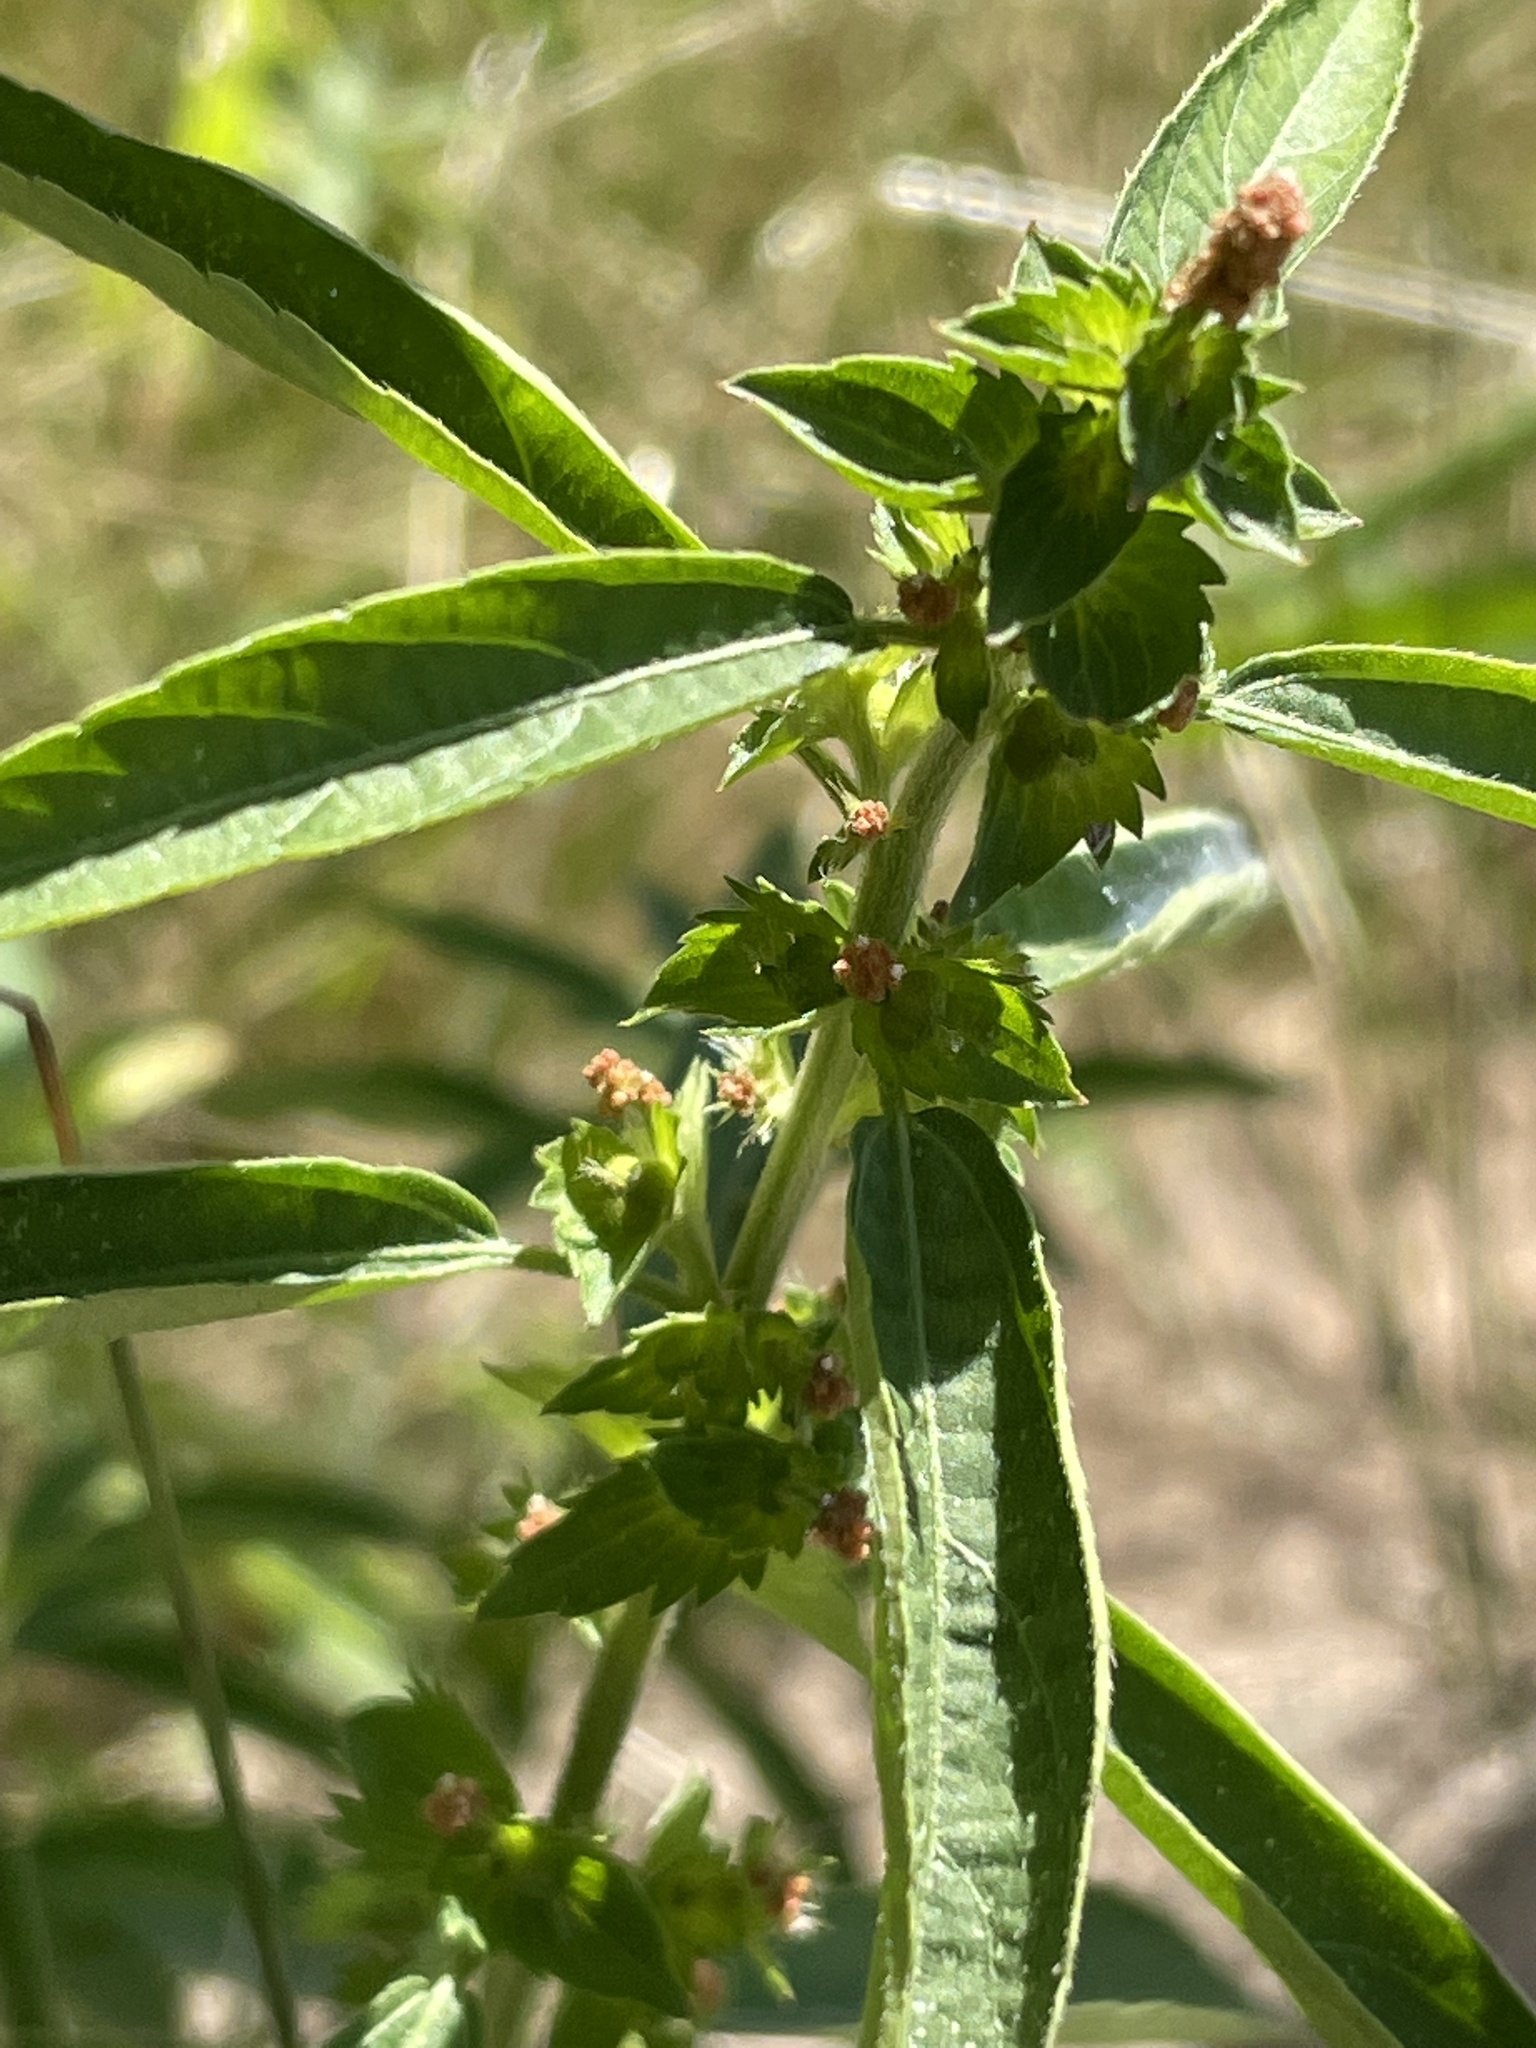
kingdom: Plantae
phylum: Tracheophyta
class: Magnoliopsida
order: Malpighiales
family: Euphorbiaceae
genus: Acalypha
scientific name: Acalypha gracilens
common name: Slender three-seeded mercury
